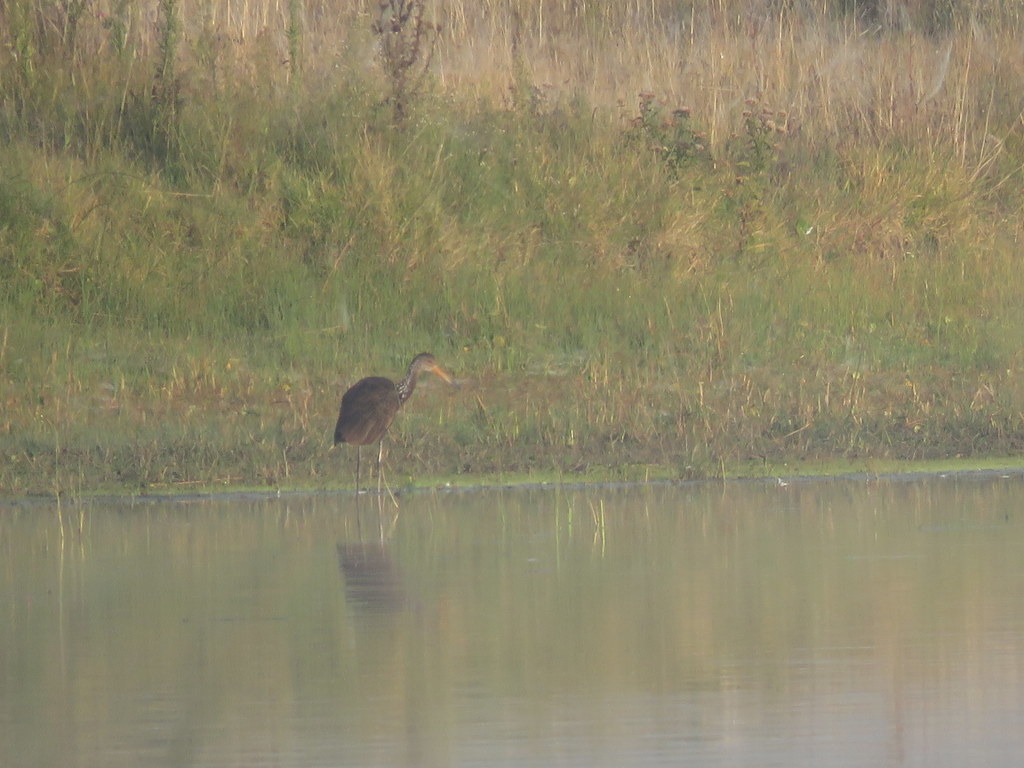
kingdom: Animalia
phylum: Chordata
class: Aves
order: Gruiformes
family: Aramidae
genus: Aramus
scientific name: Aramus guarauna
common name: Limpkin
